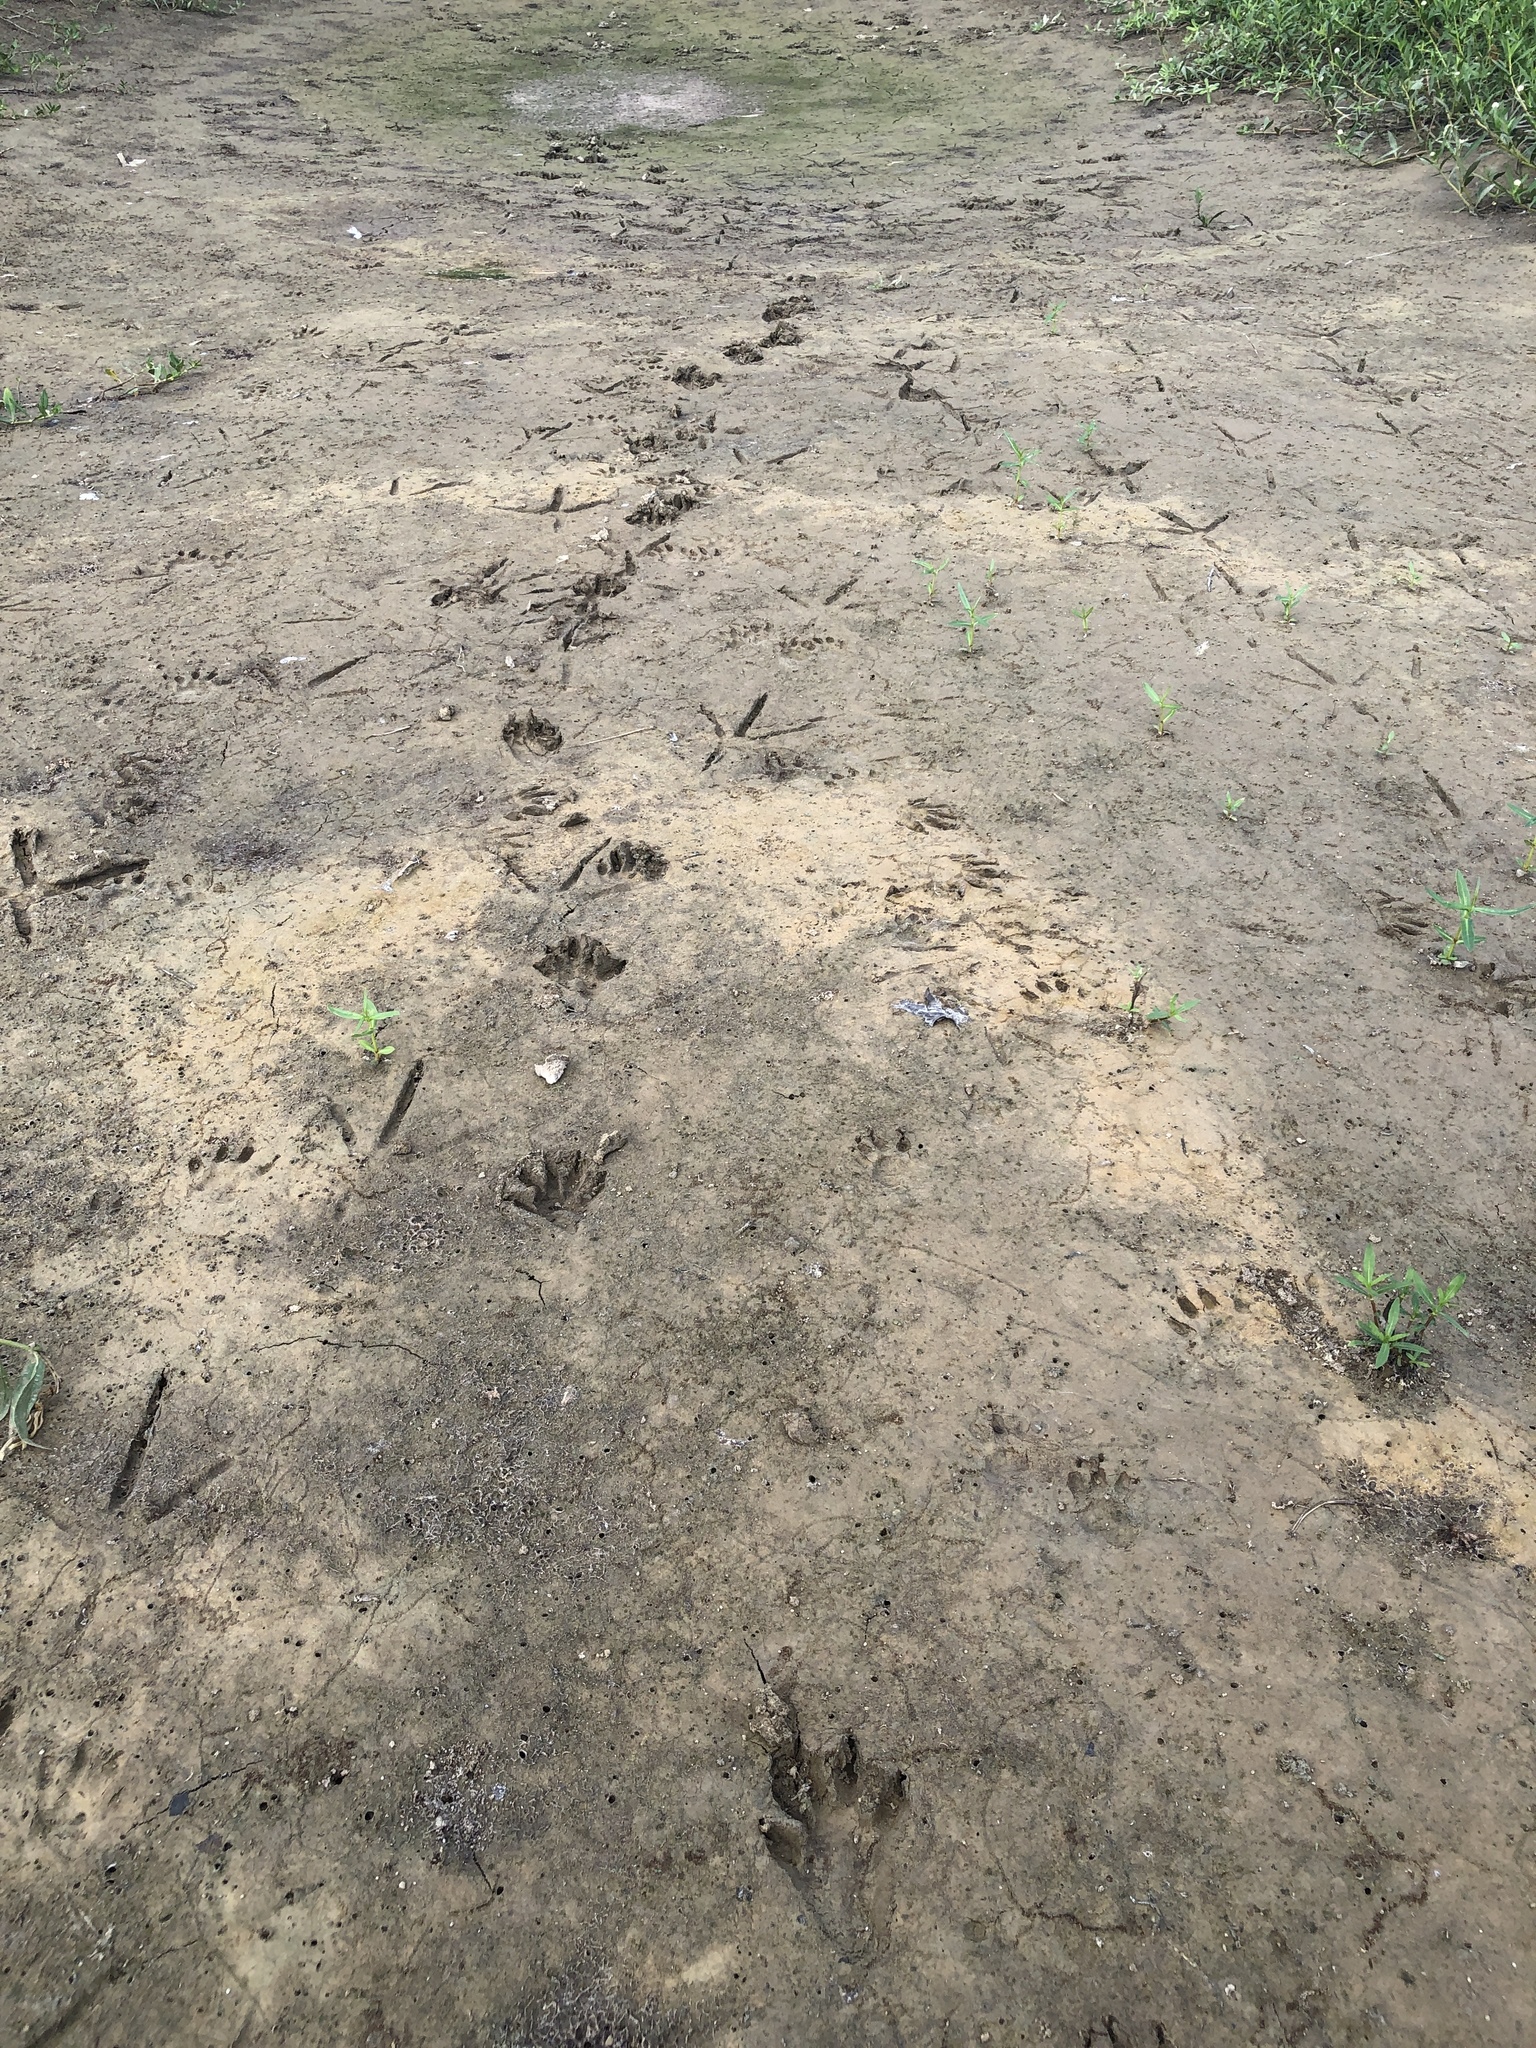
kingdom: Animalia
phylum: Chordata
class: Mammalia
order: Carnivora
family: Procyonidae
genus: Procyon
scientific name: Procyon lotor
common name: Raccoon
